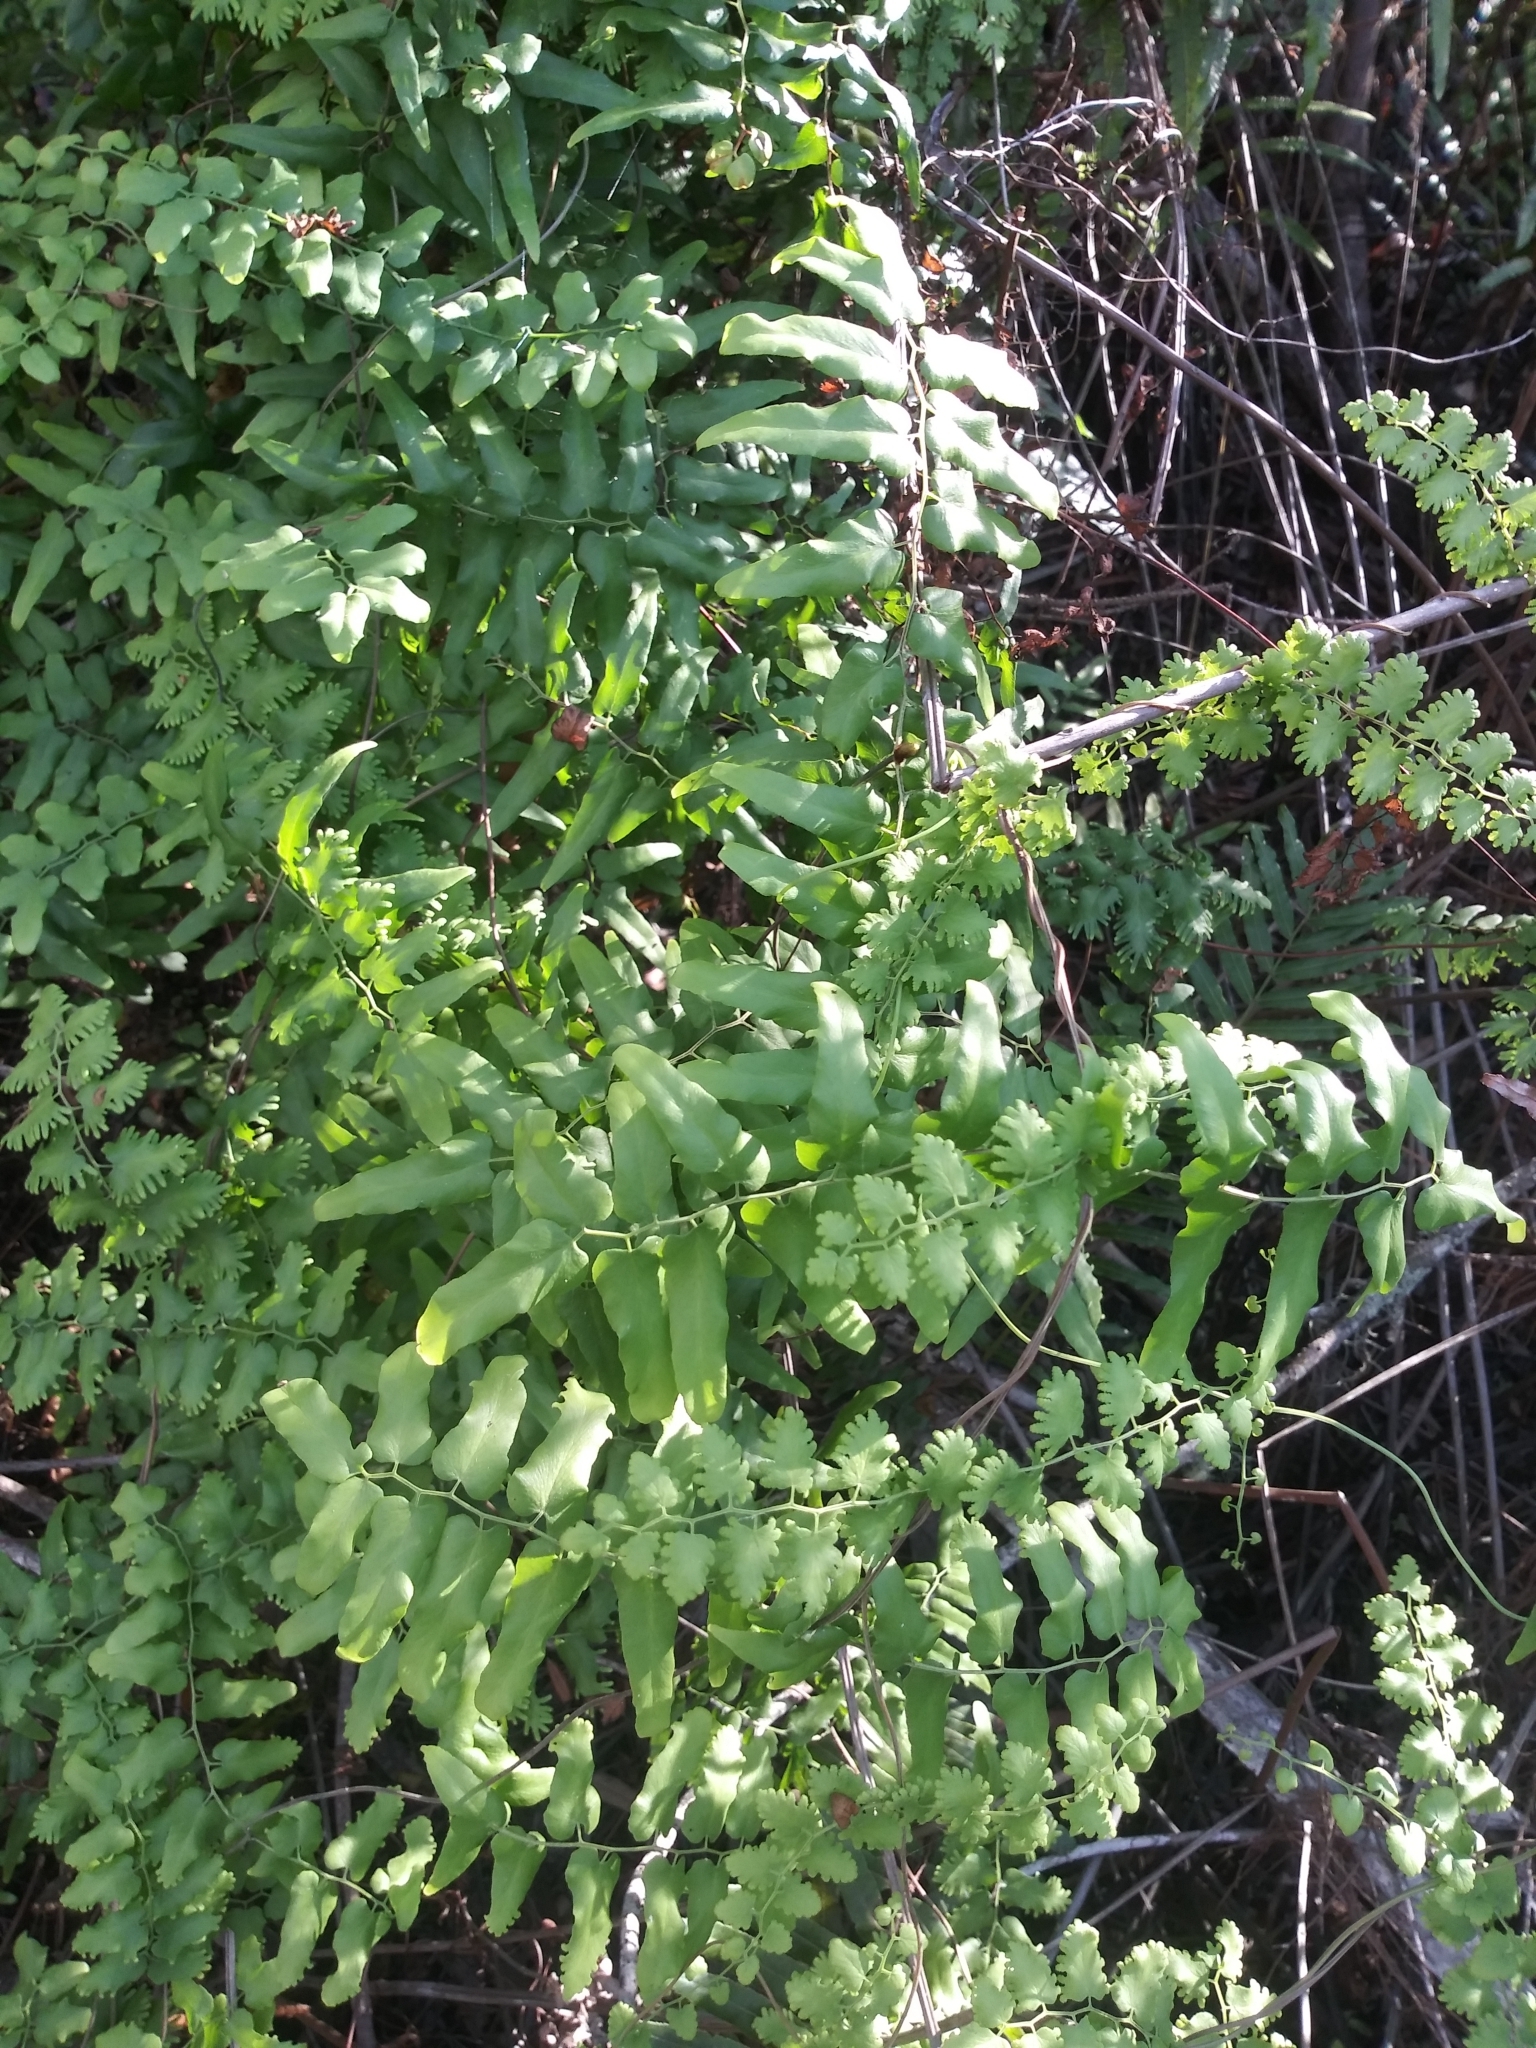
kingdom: Plantae
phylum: Tracheophyta
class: Polypodiopsida
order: Schizaeales
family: Lygodiaceae
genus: Lygodium
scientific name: Lygodium microphyllum
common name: Small-leaf climbing fern
